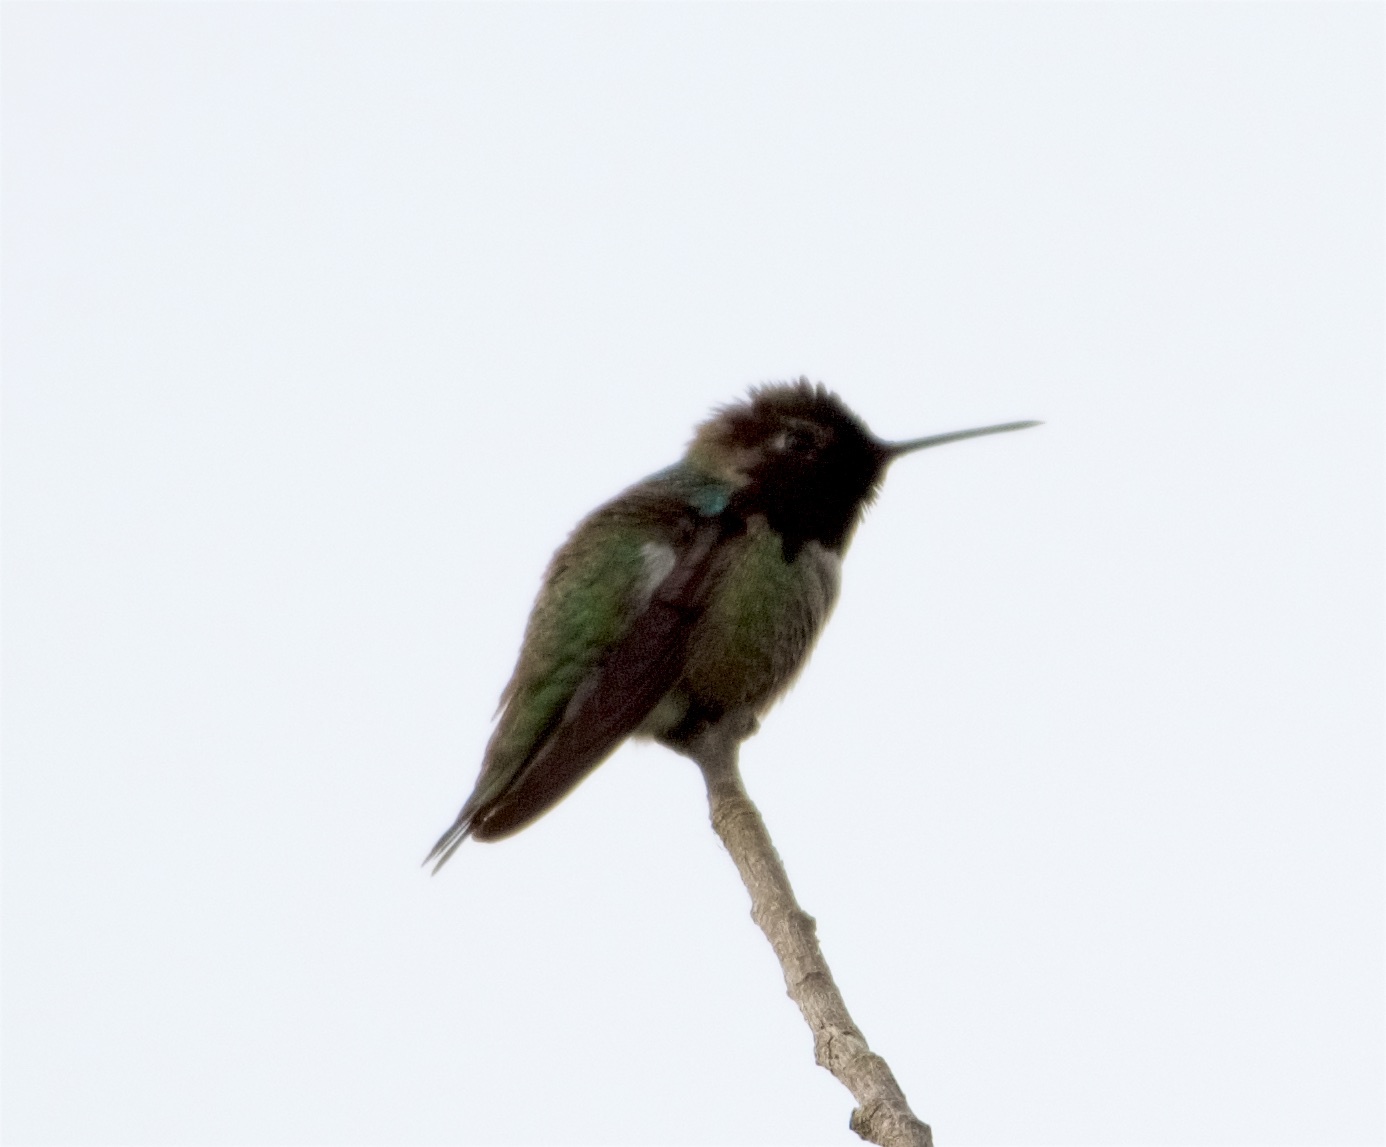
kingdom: Animalia
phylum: Chordata
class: Aves
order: Apodiformes
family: Trochilidae
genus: Calypte
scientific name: Calypte anna
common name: Anna's hummingbird
